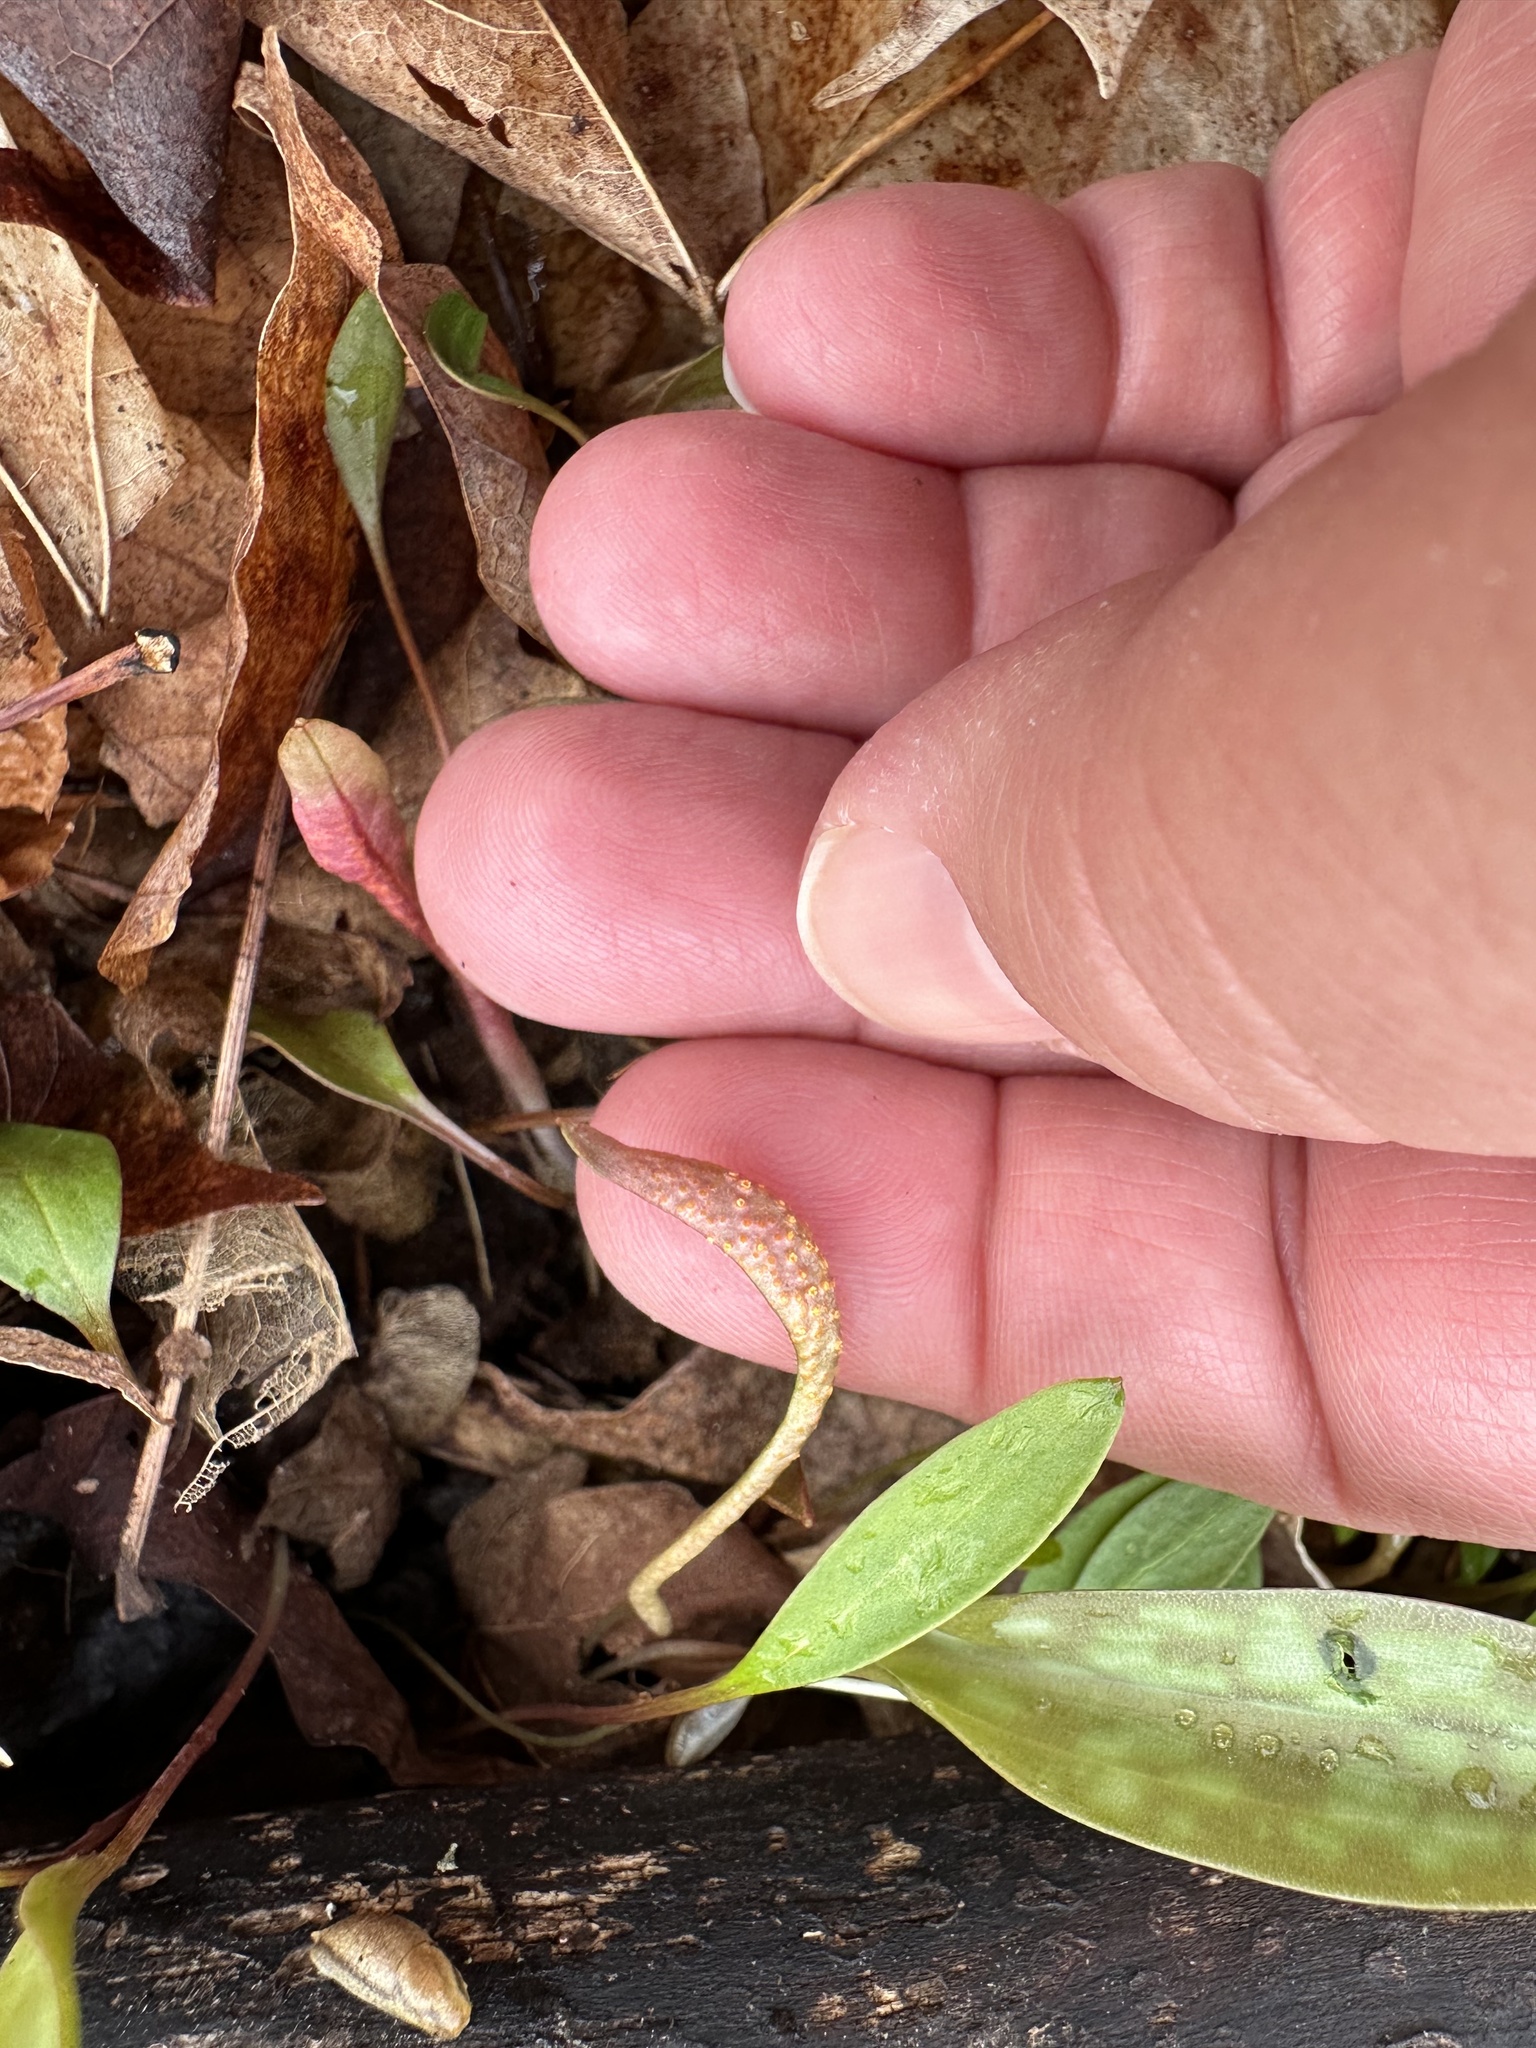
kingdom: Fungi
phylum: Basidiomycota
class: Pucciniomycetes
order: Pucciniales
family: Pucciniaceae
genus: Puccinia
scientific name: Puccinia mariae-wilsoniae
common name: Spring beauty rust
